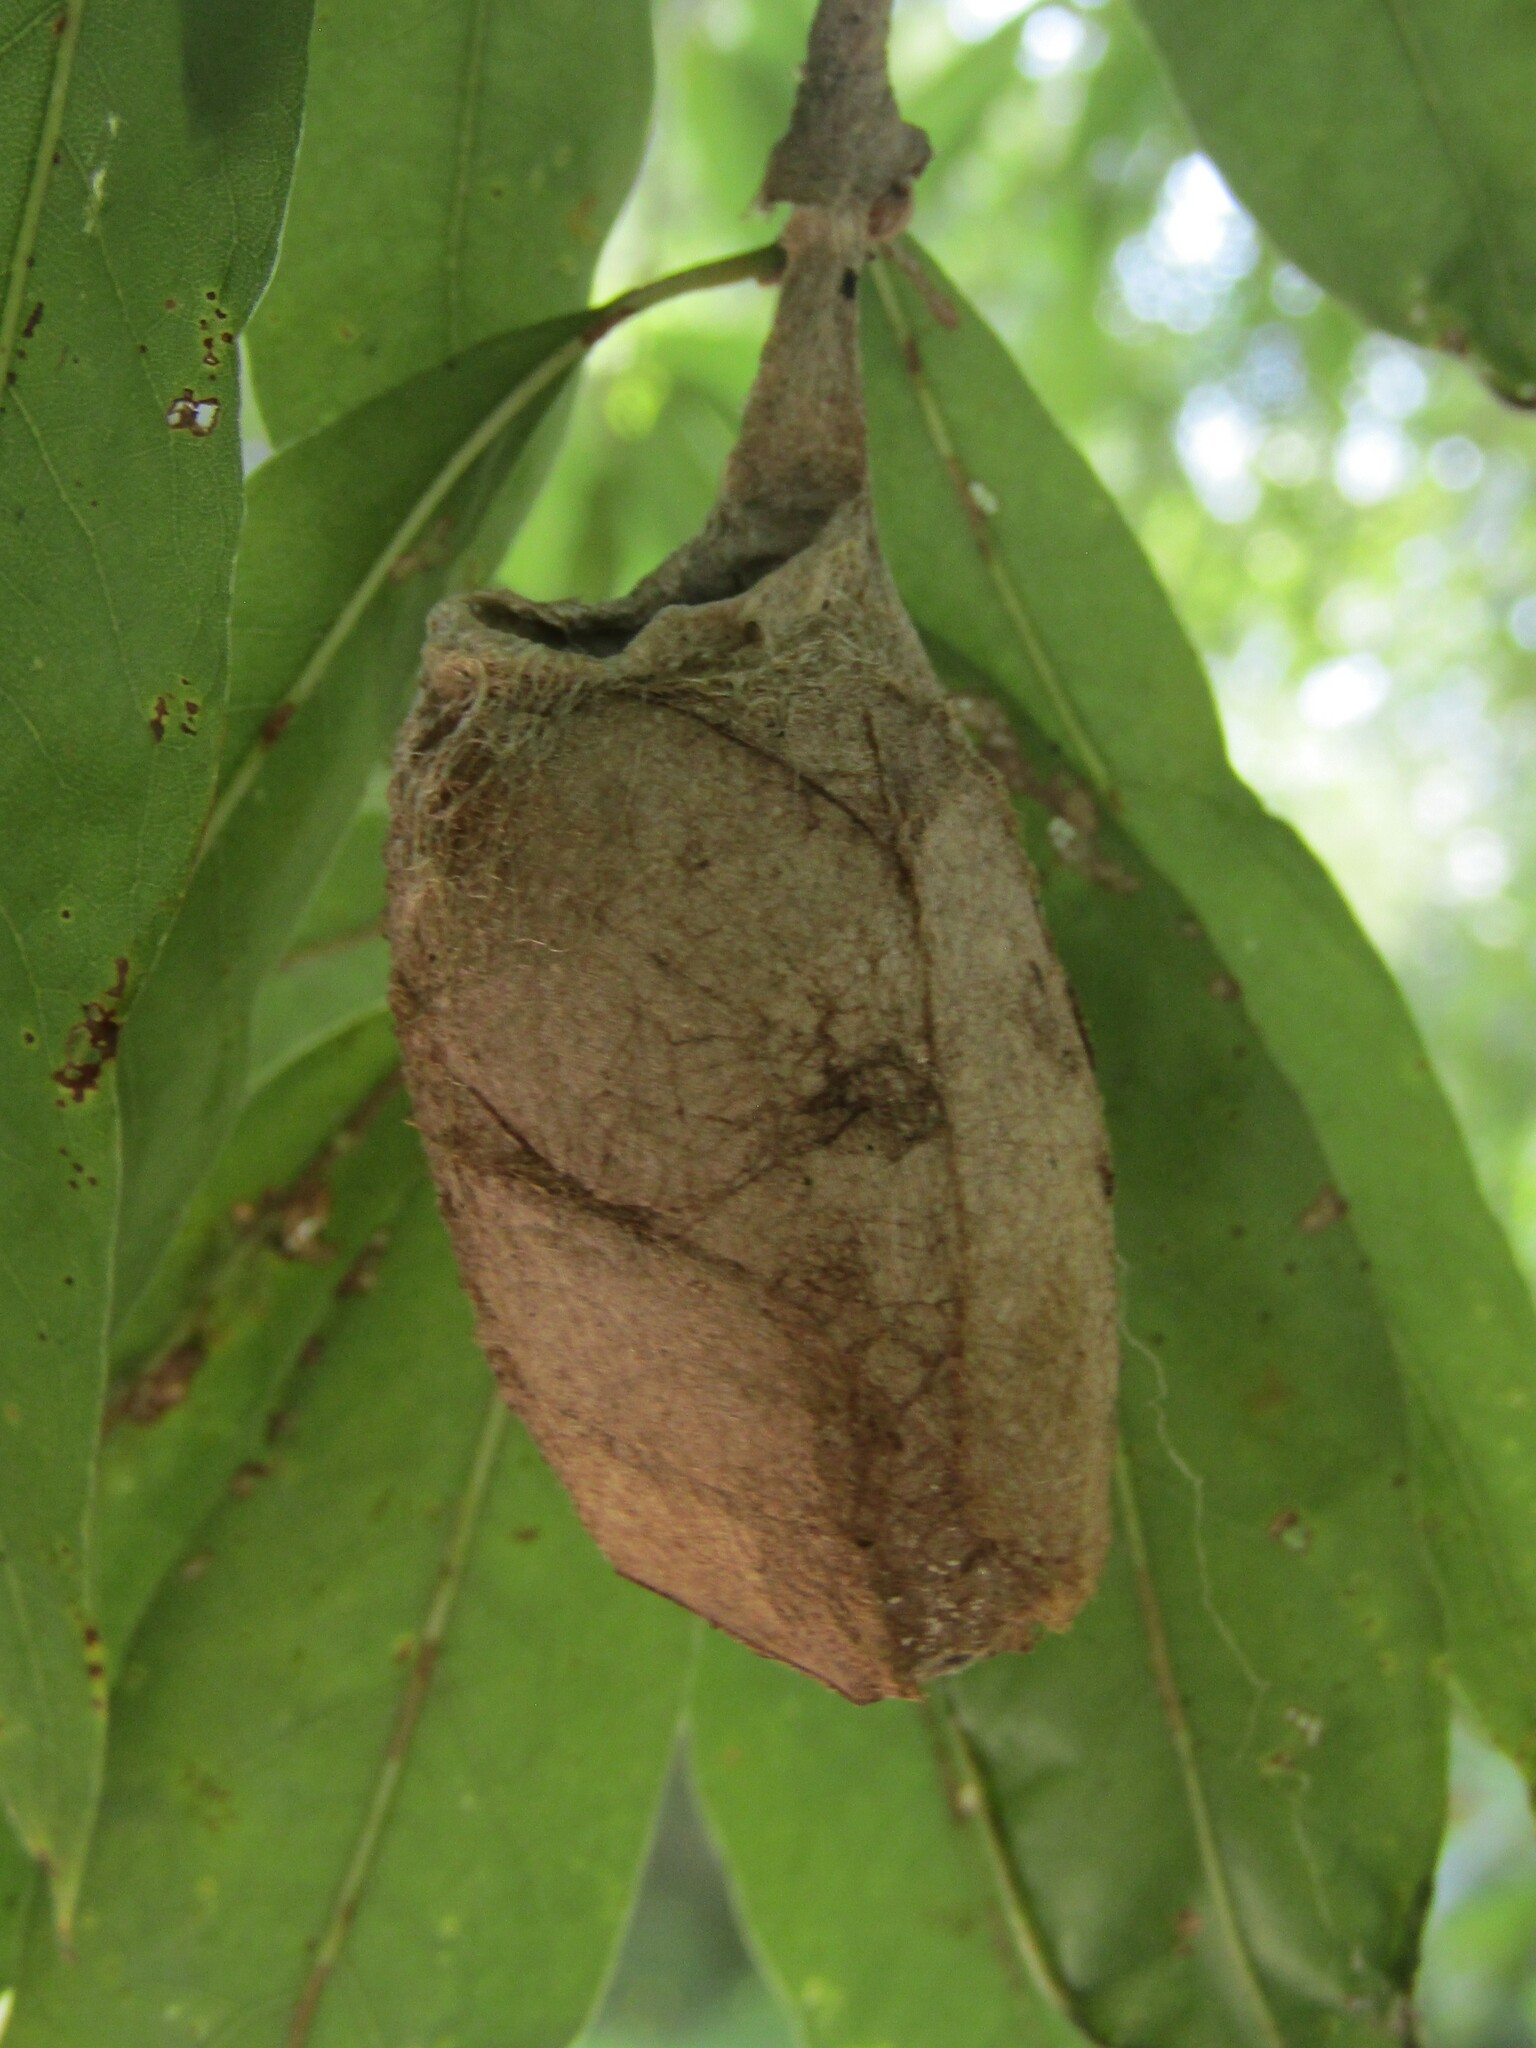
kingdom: Animalia
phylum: Arthropoda
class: Insecta
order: Lepidoptera
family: Saturniidae
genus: Antheraea
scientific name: Antheraea polyphemus
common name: Polyphemus moth
